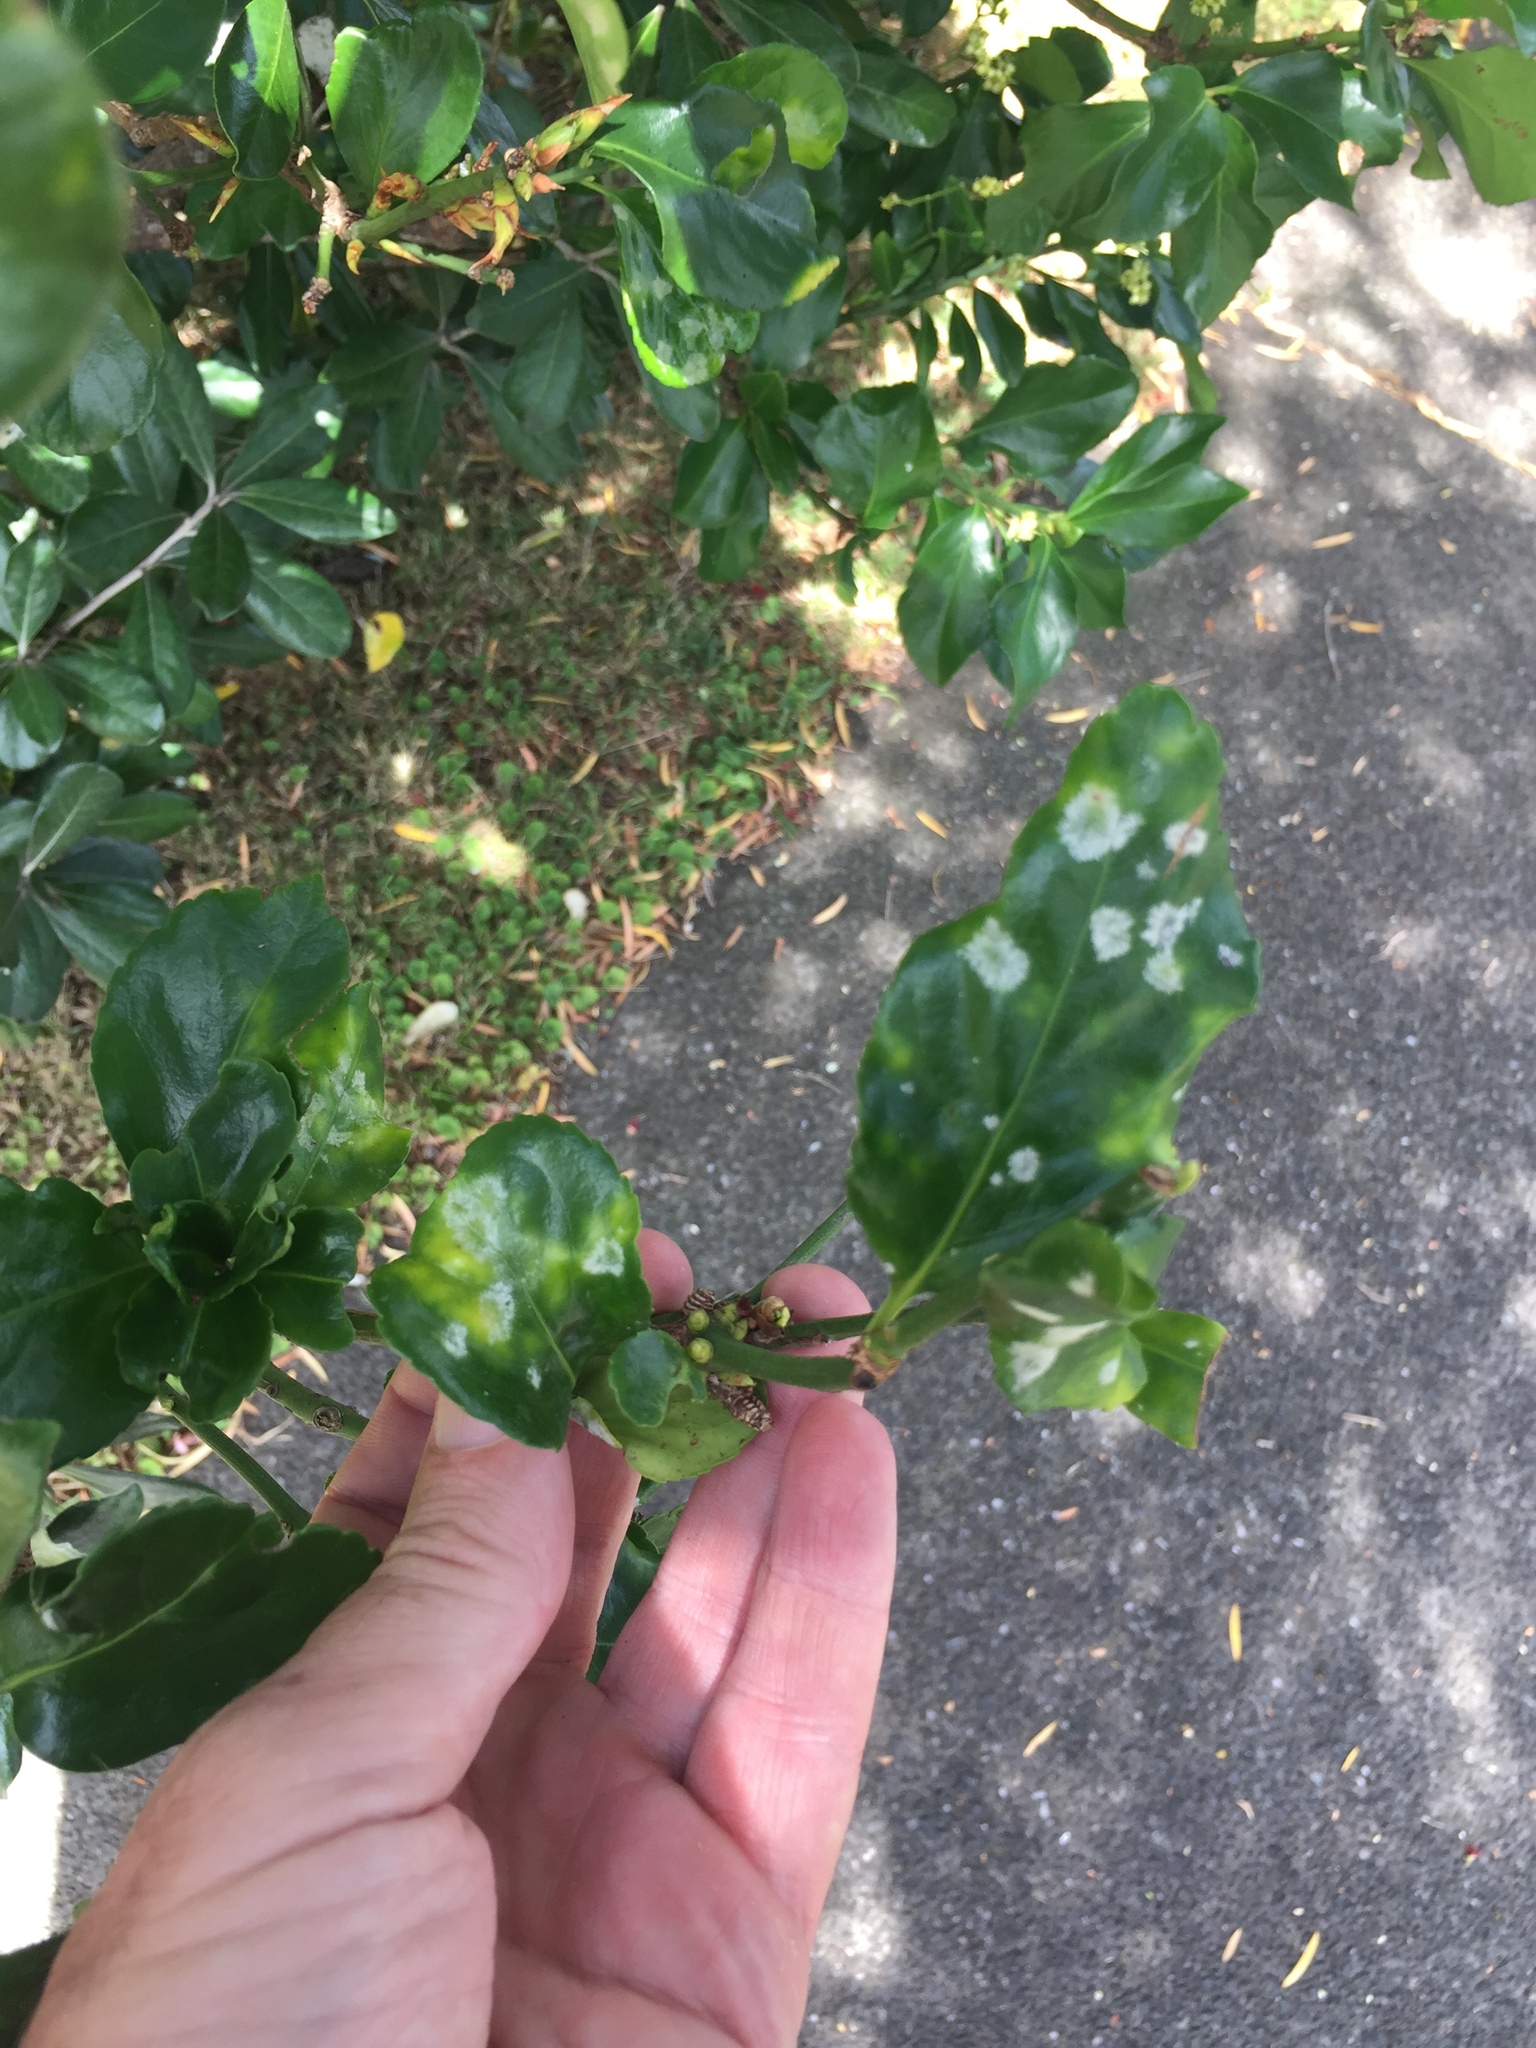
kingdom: Fungi
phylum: Ascomycota
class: Leotiomycetes
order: Helotiales
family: Erysiphaceae
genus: Erysiphe
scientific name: Erysiphe euonymicola
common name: Spindletree mildew
